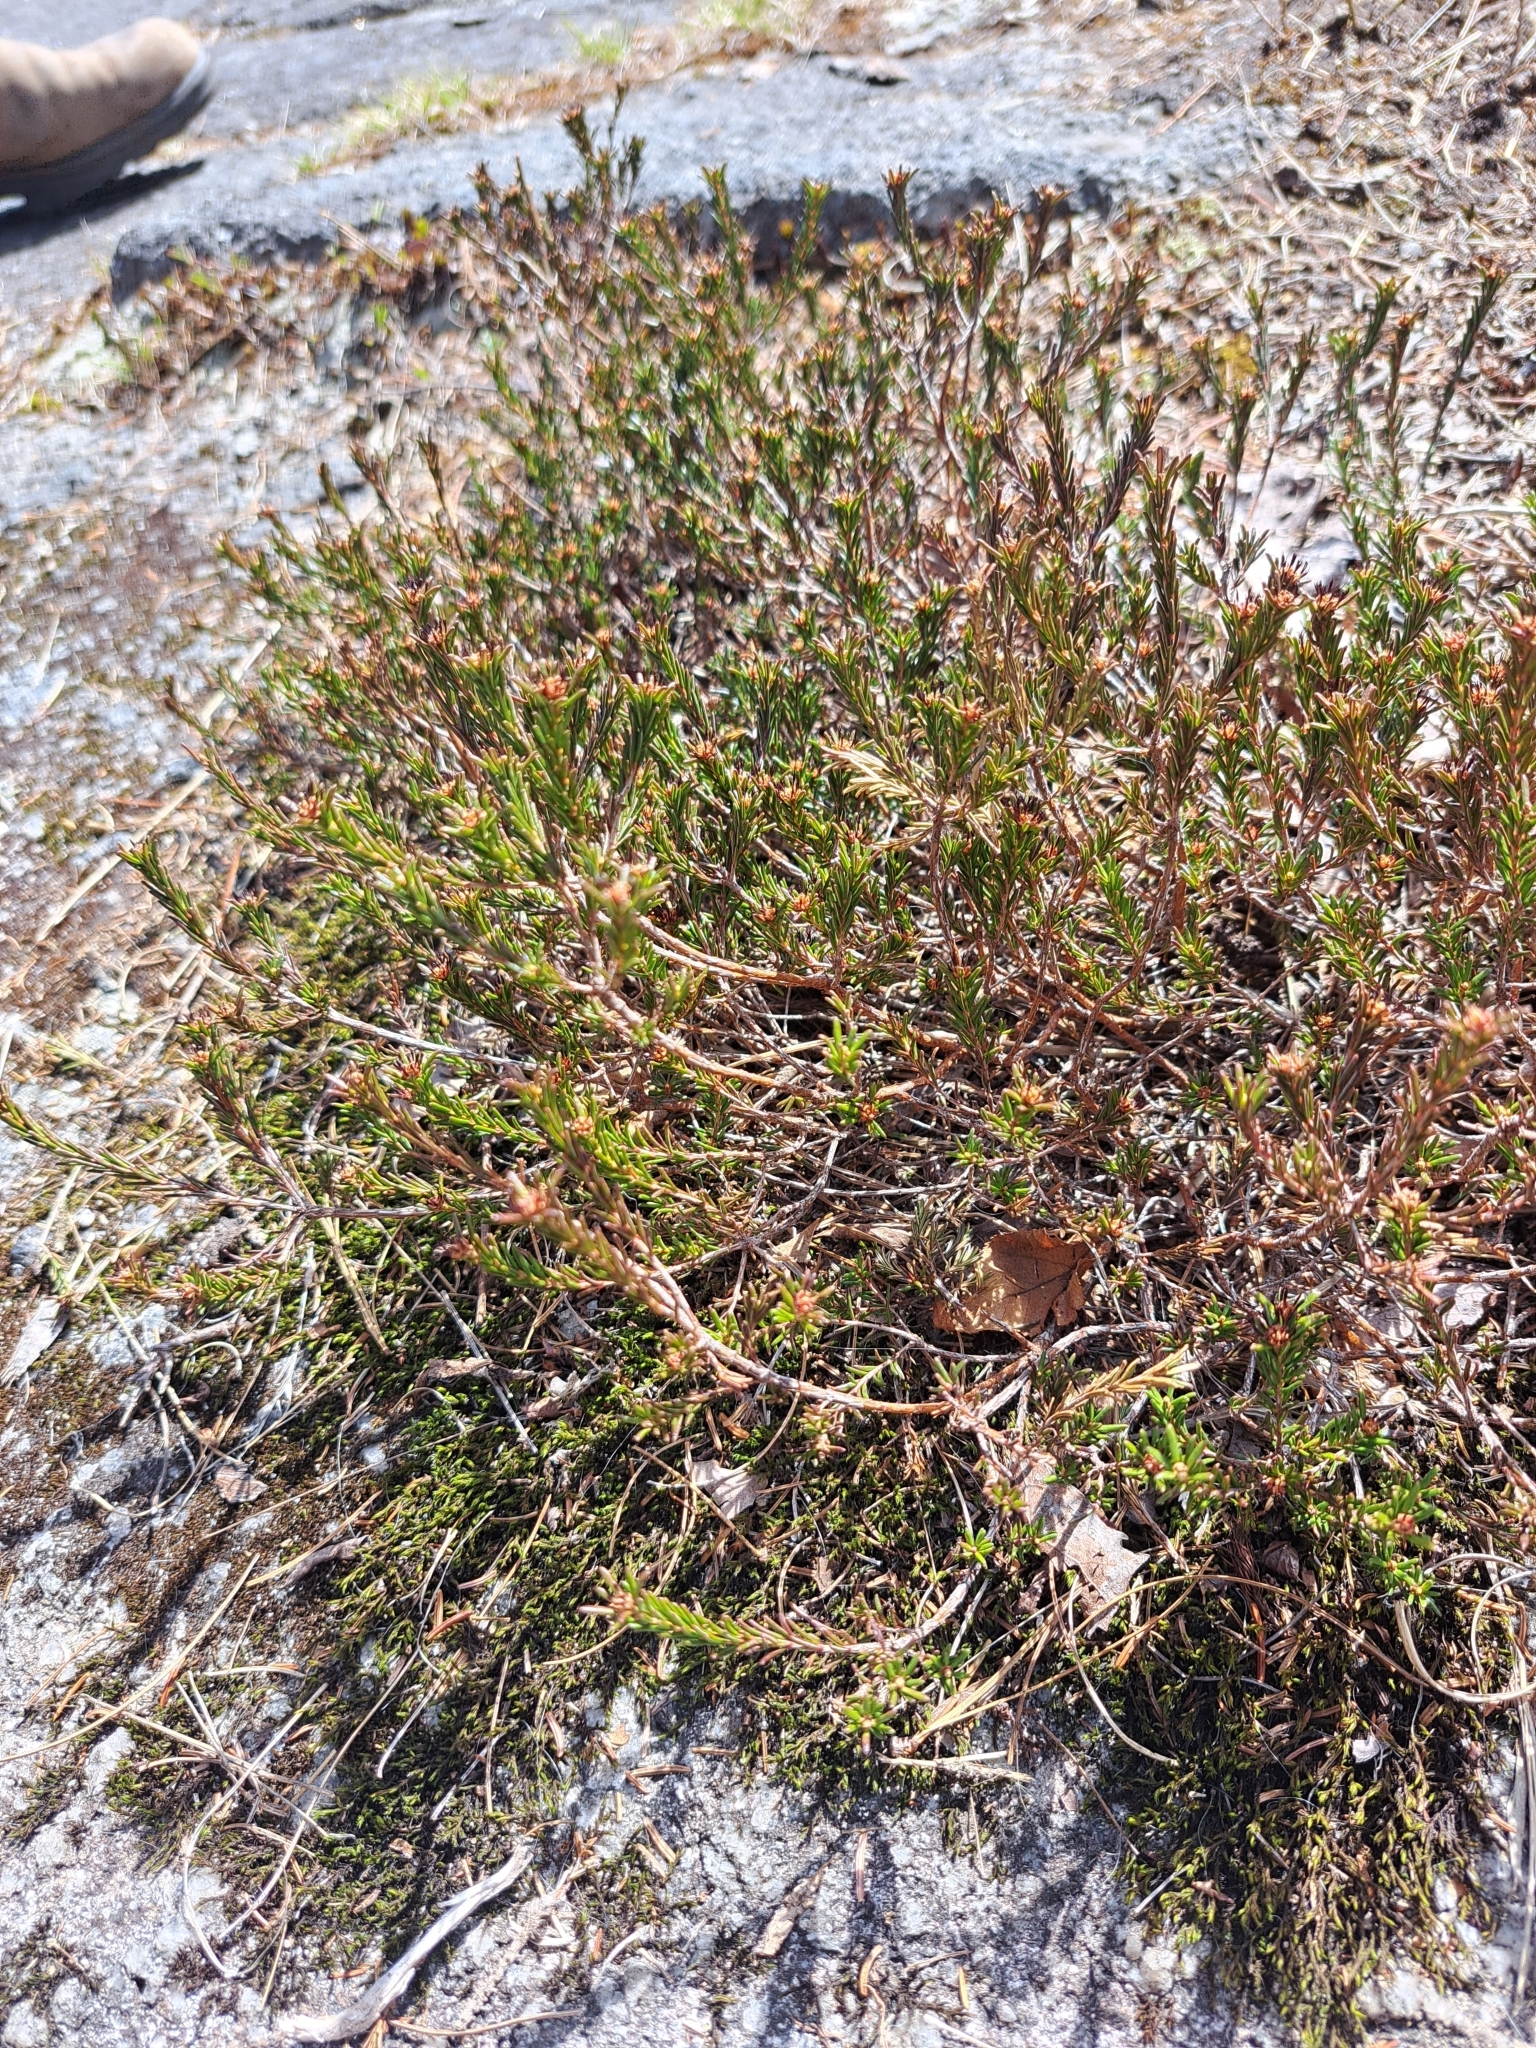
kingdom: Plantae
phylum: Tracheophyta
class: Magnoliopsida
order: Ericales
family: Ericaceae
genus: Corema
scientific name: Corema conradii
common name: Broom-crowberry
